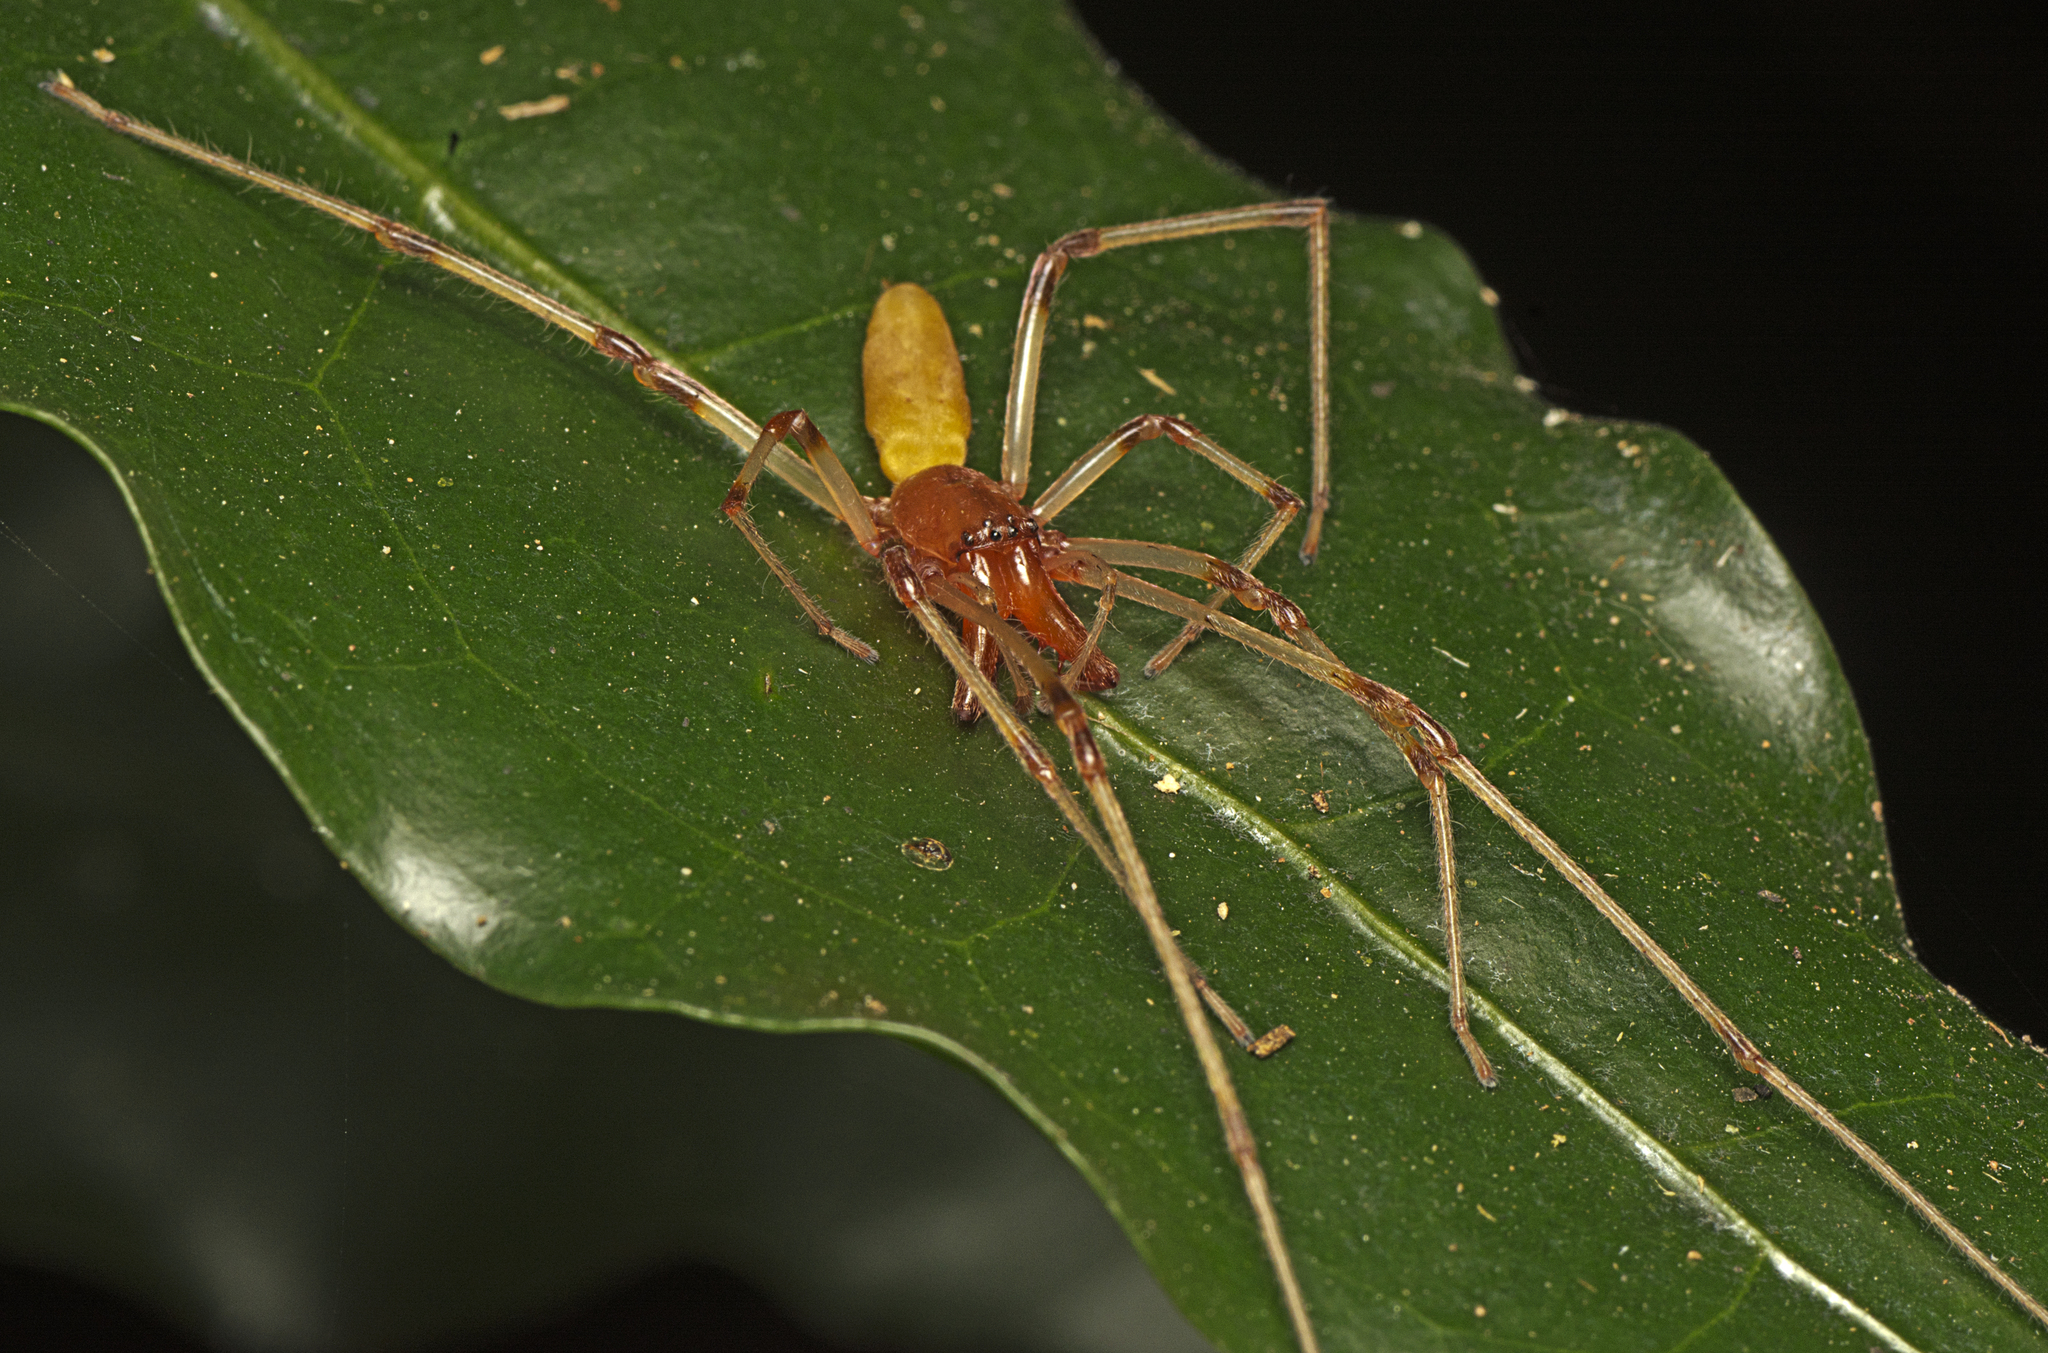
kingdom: Animalia
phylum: Arthropoda
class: Arachnida
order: Araneae
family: Cheiracanthiidae
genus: Calamoneta
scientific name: Calamoneta
